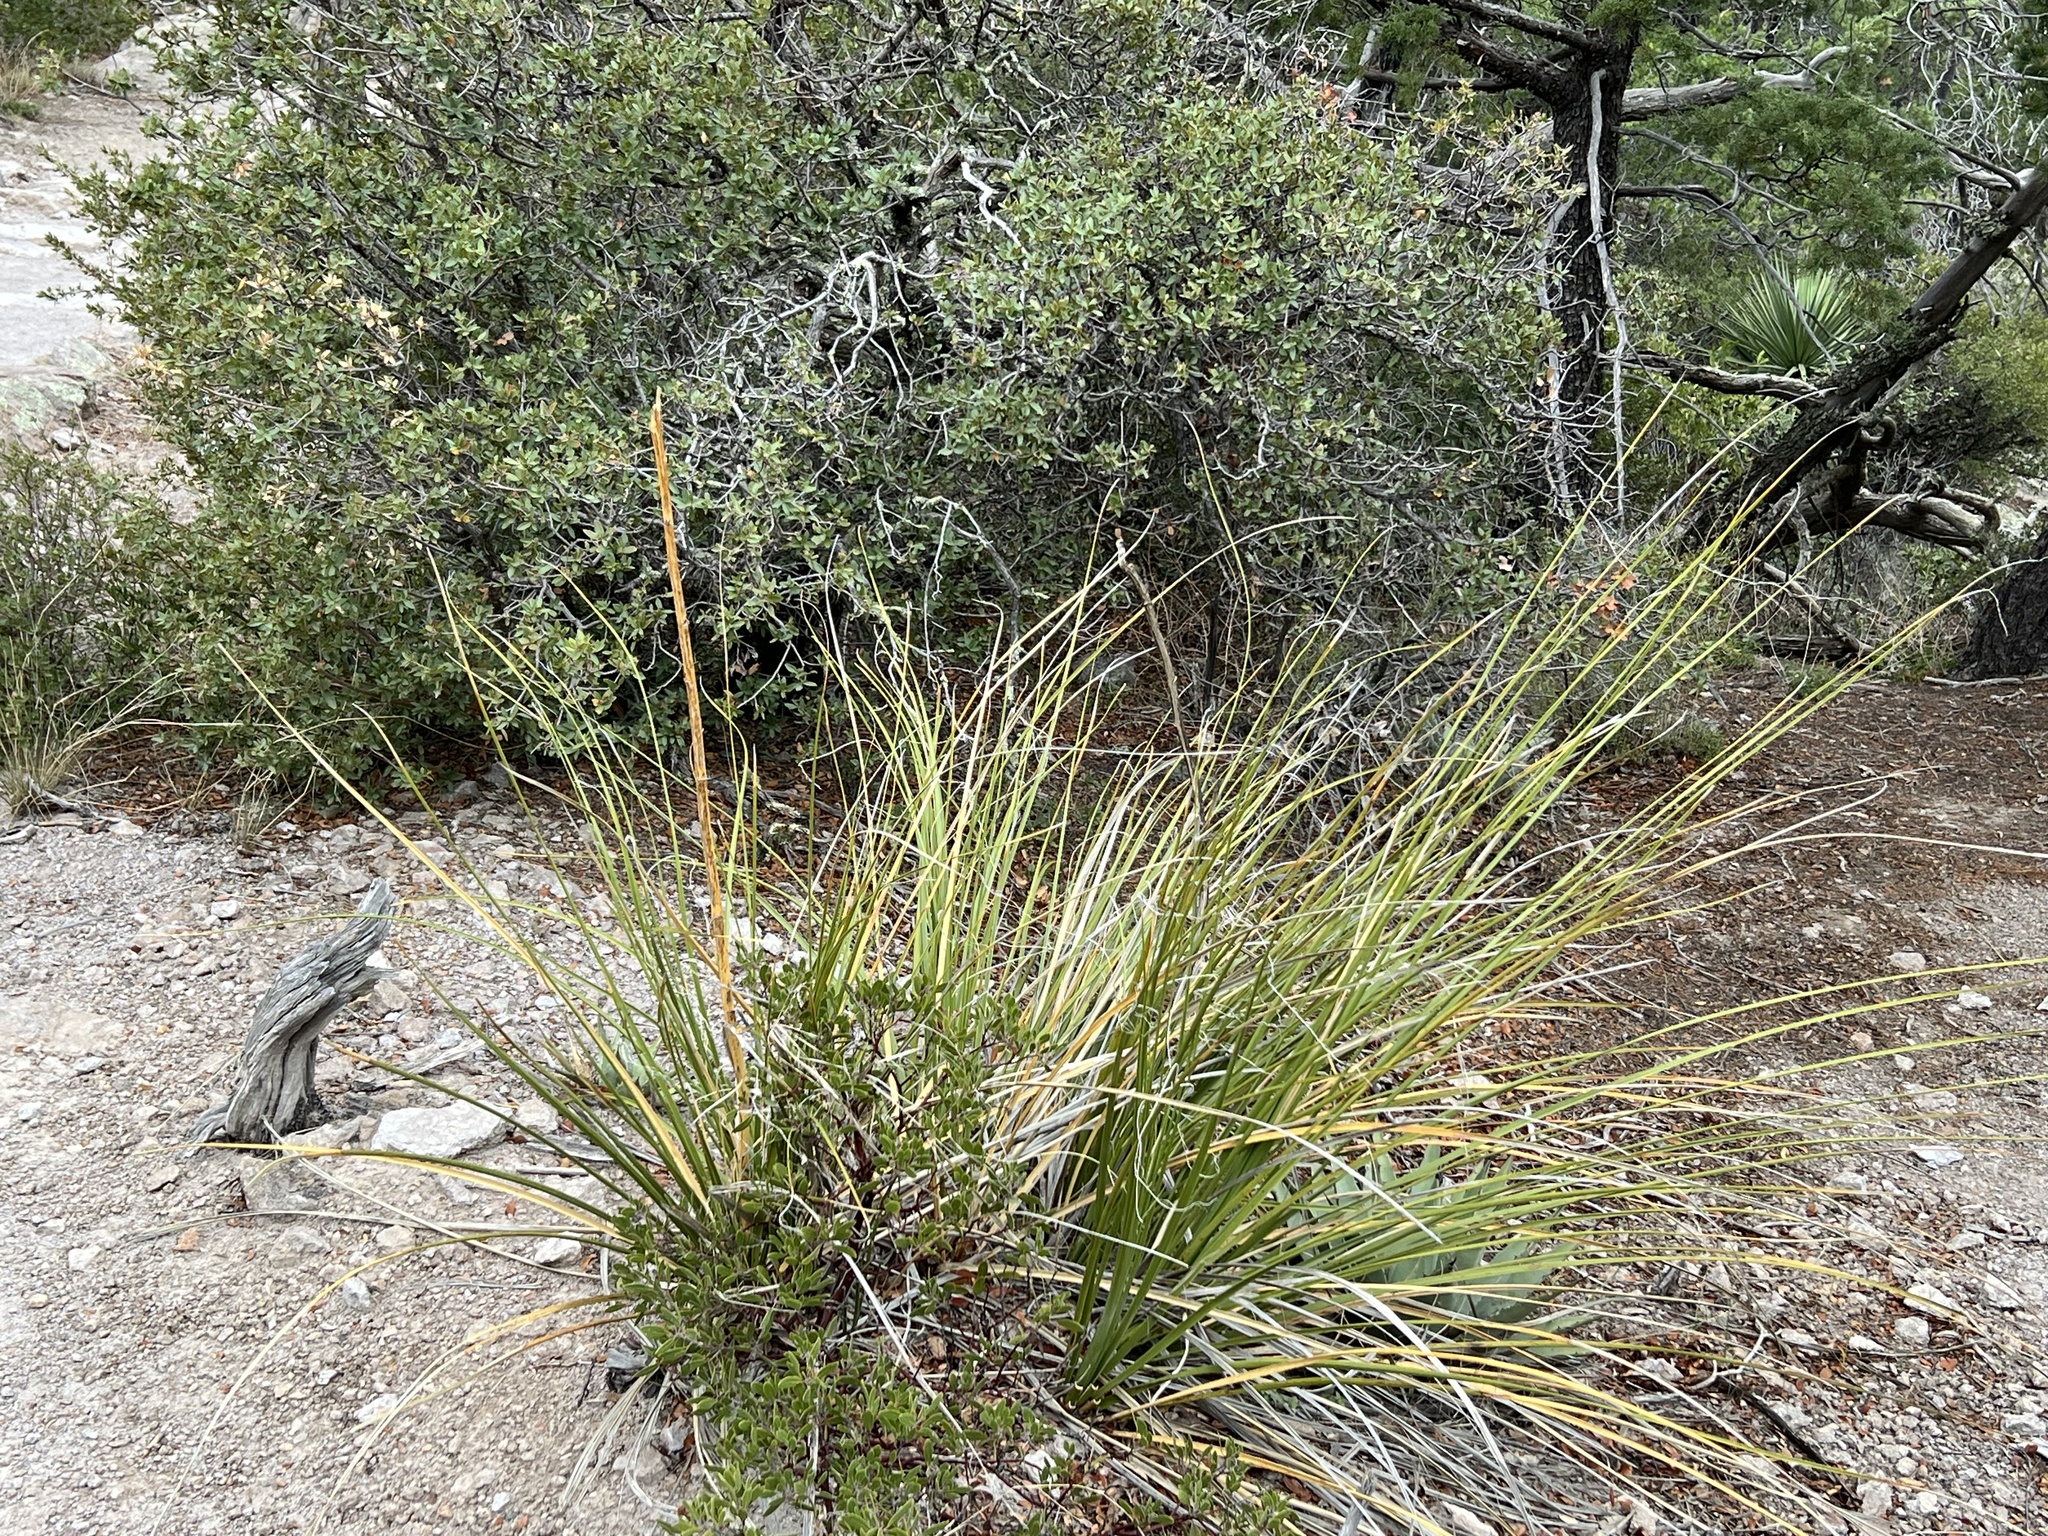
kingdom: Plantae
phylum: Tracheophyta
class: Liliopsida
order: Asparagales
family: Asparagaceae
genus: Nolina
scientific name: Nolina microcarpa
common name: Bear-grass
